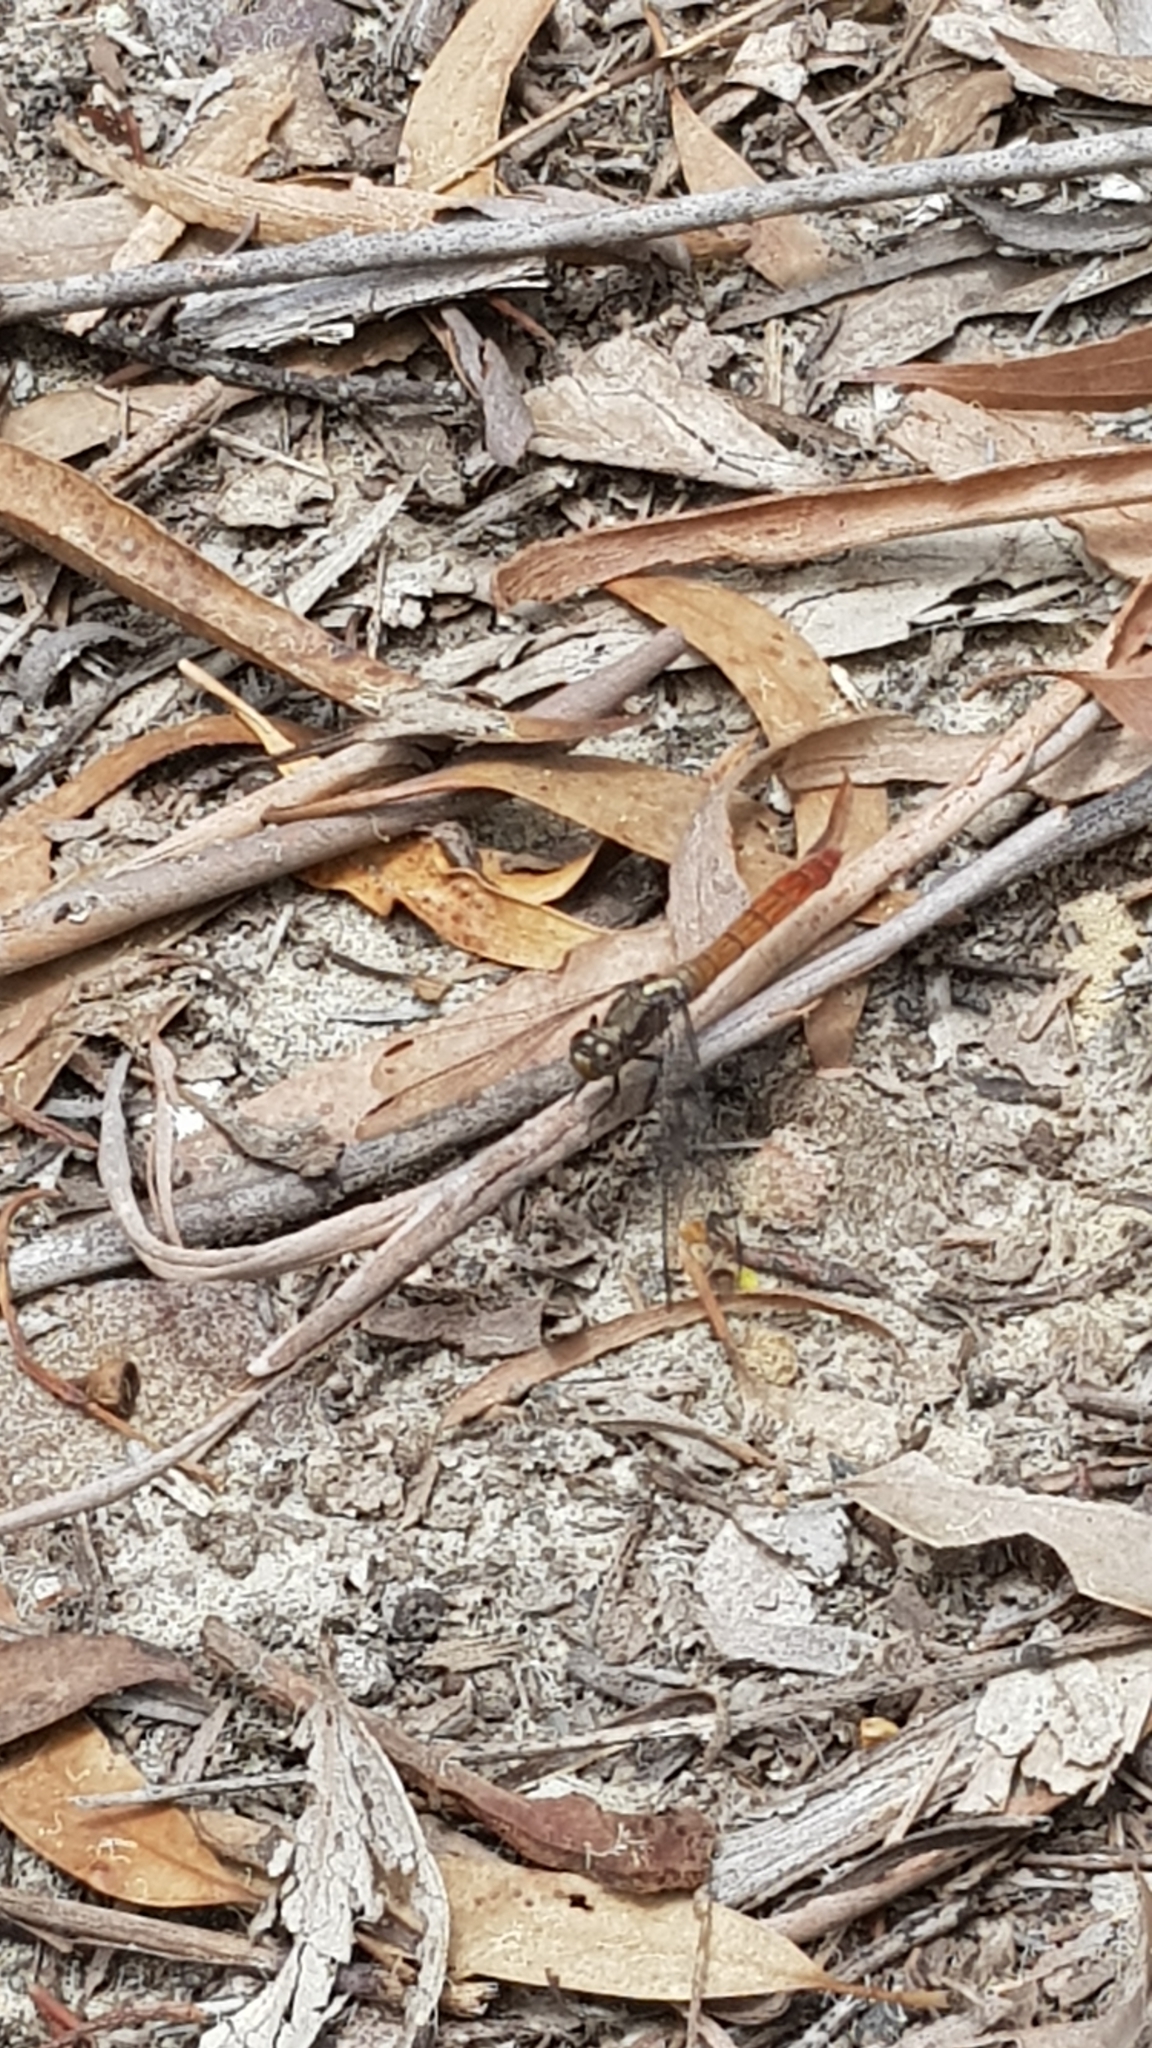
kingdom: Animalia
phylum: Arthropoda
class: Insecta
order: Odonata
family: Libellulidae
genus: Orthetrum
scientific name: Orthetrum villosovittatum
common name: Firery skimmer
